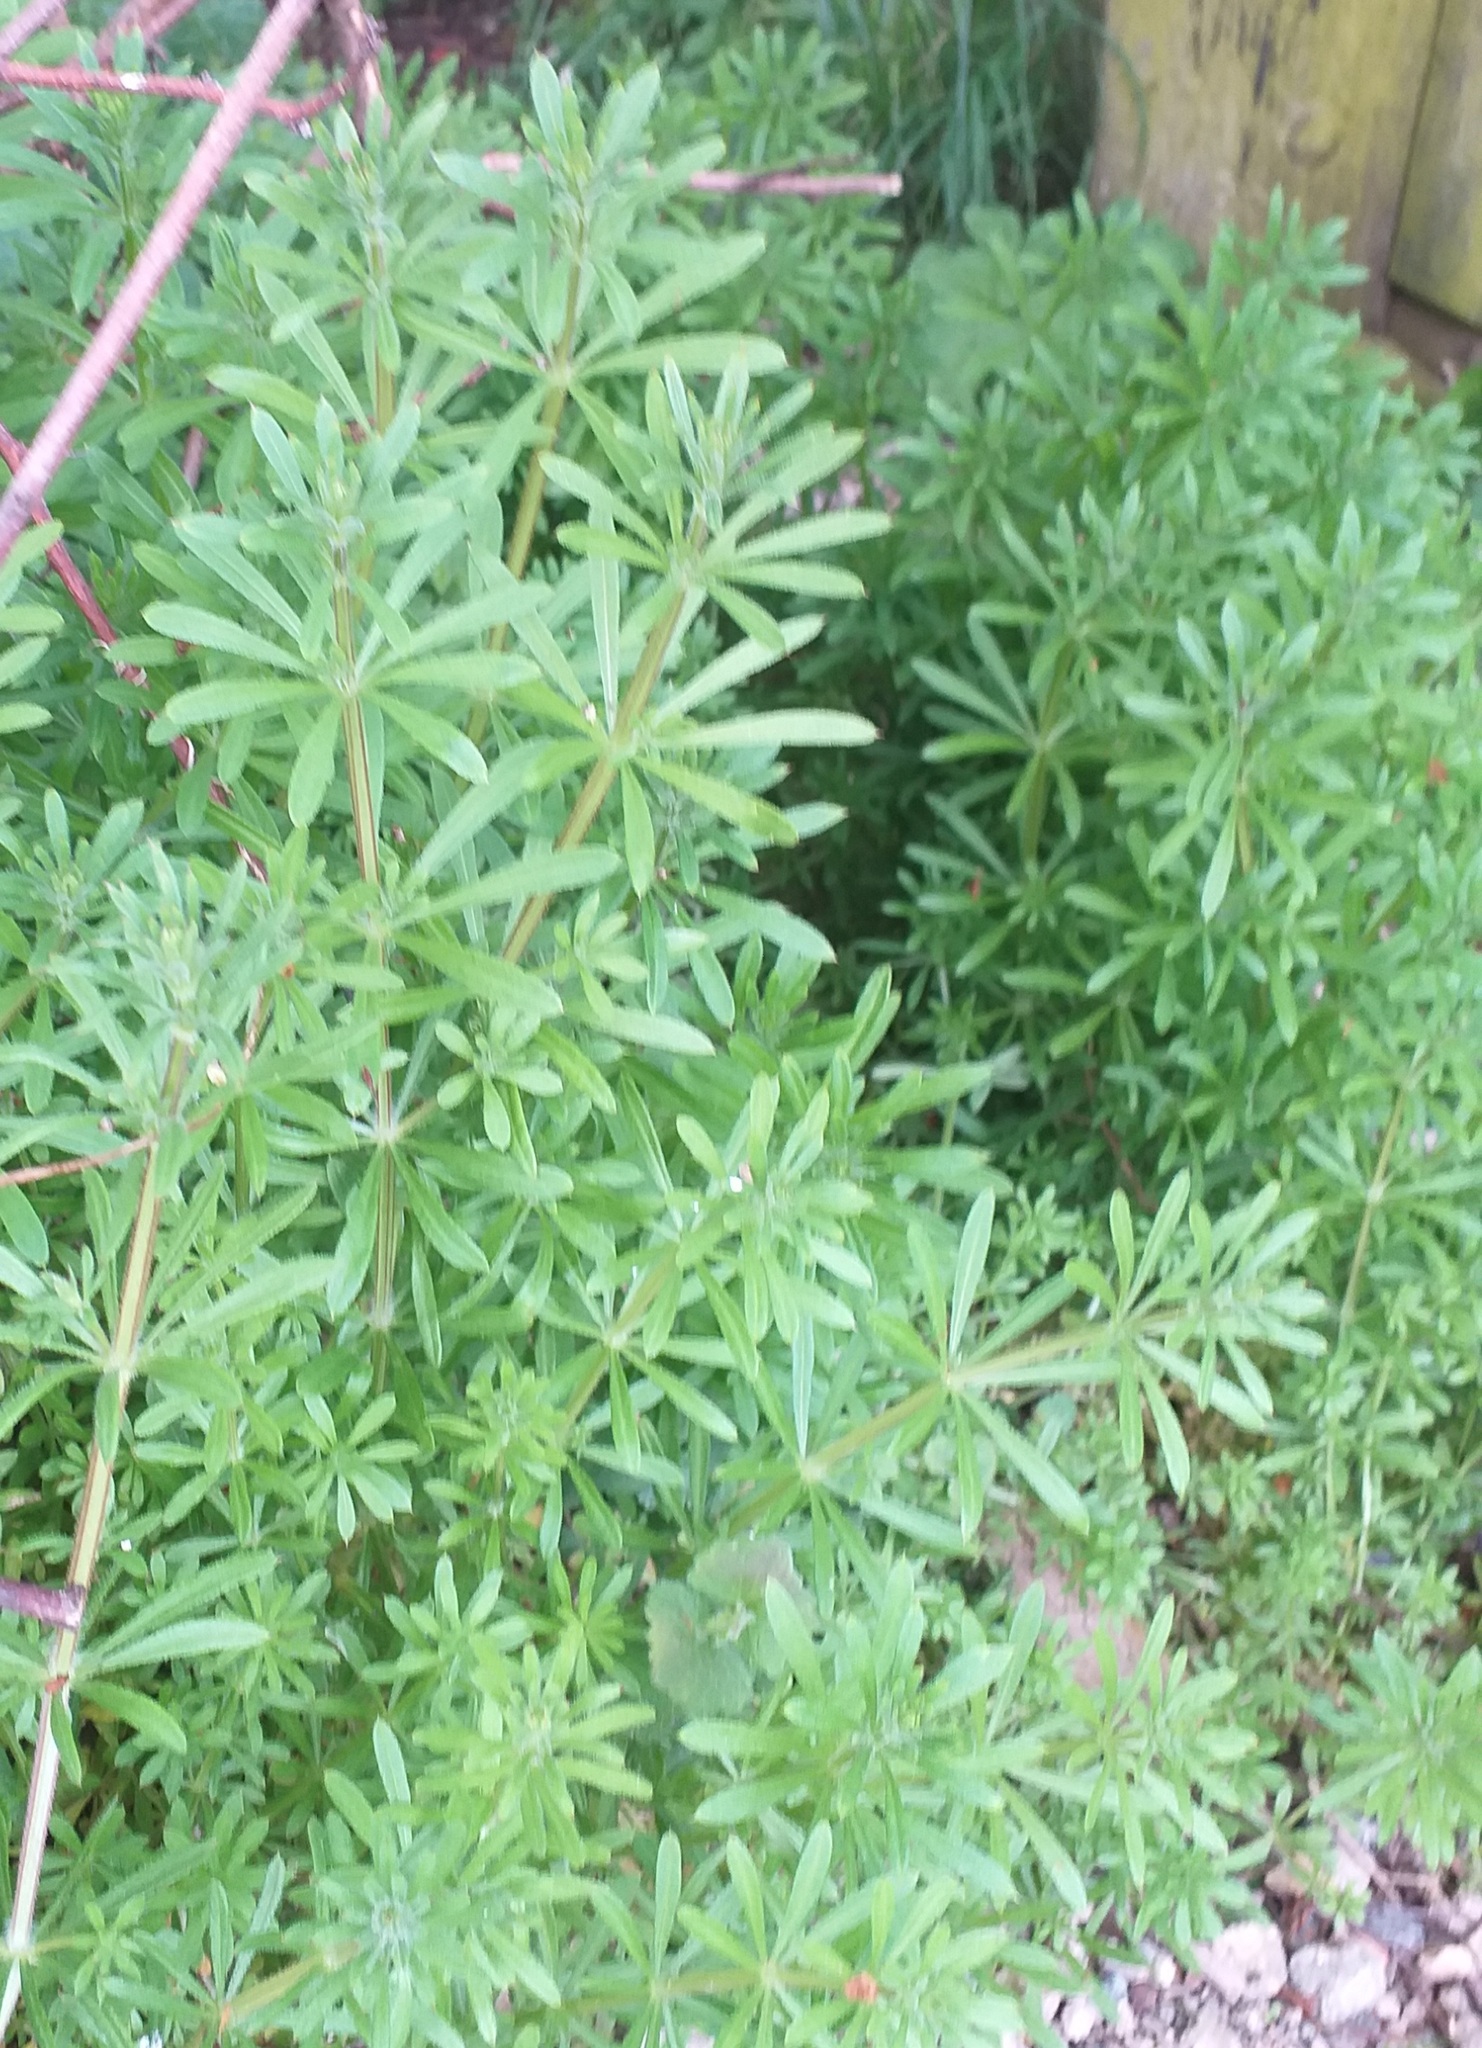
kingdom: Plantae
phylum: Tracheophyta
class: Magnoliopsida
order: Gentianales
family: Rubiaceae
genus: Galium
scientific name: Galium aparine
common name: Cleavers
